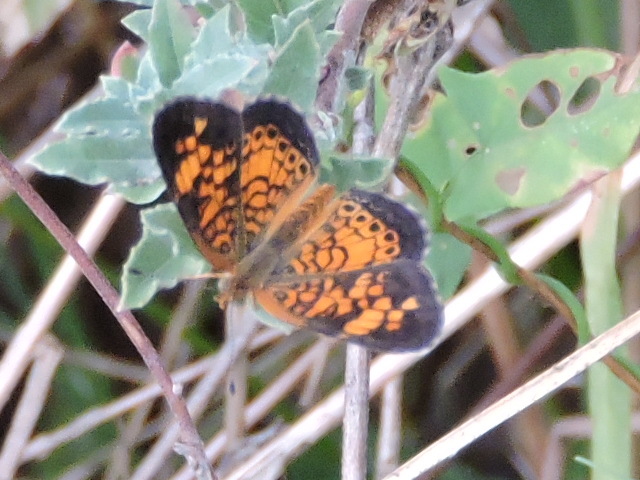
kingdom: Animalia
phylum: Arthropoda
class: Insecta
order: Lepidoptera
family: Nymphalidae
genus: Phyciodes
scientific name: Phyciodes tharos
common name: Pearl crescent
